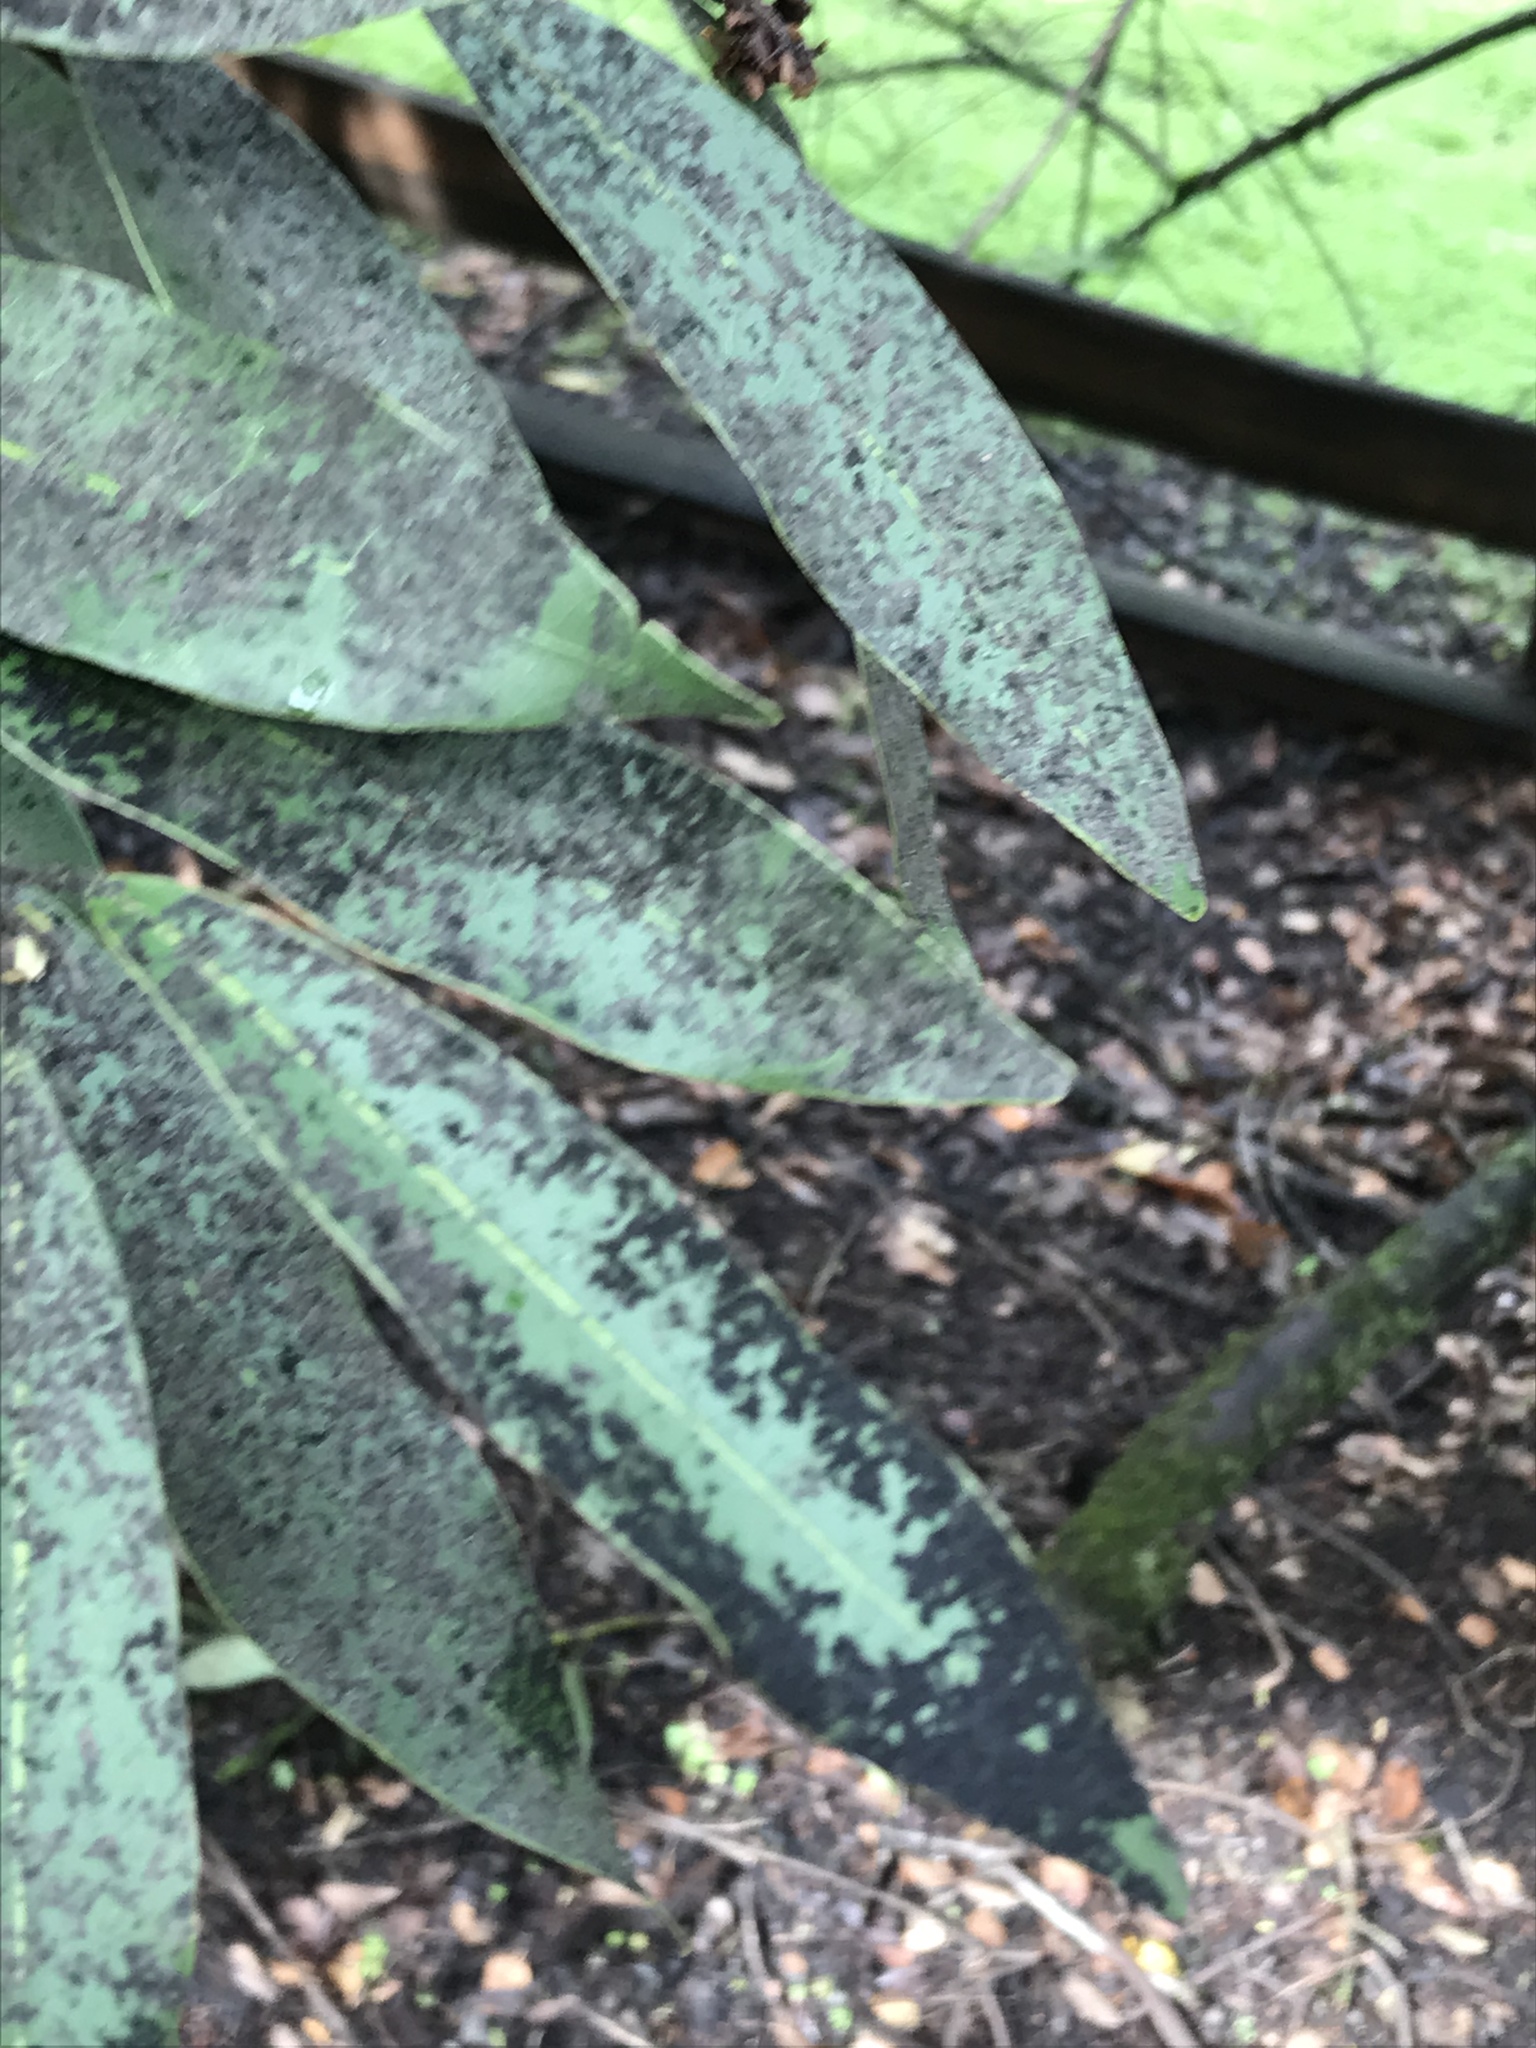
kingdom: Plantae
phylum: Tracheophyta
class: Magnoliopsida
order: Laurales
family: Lauraceae
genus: Umbellularia
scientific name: Umbellularia californica
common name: California bay
